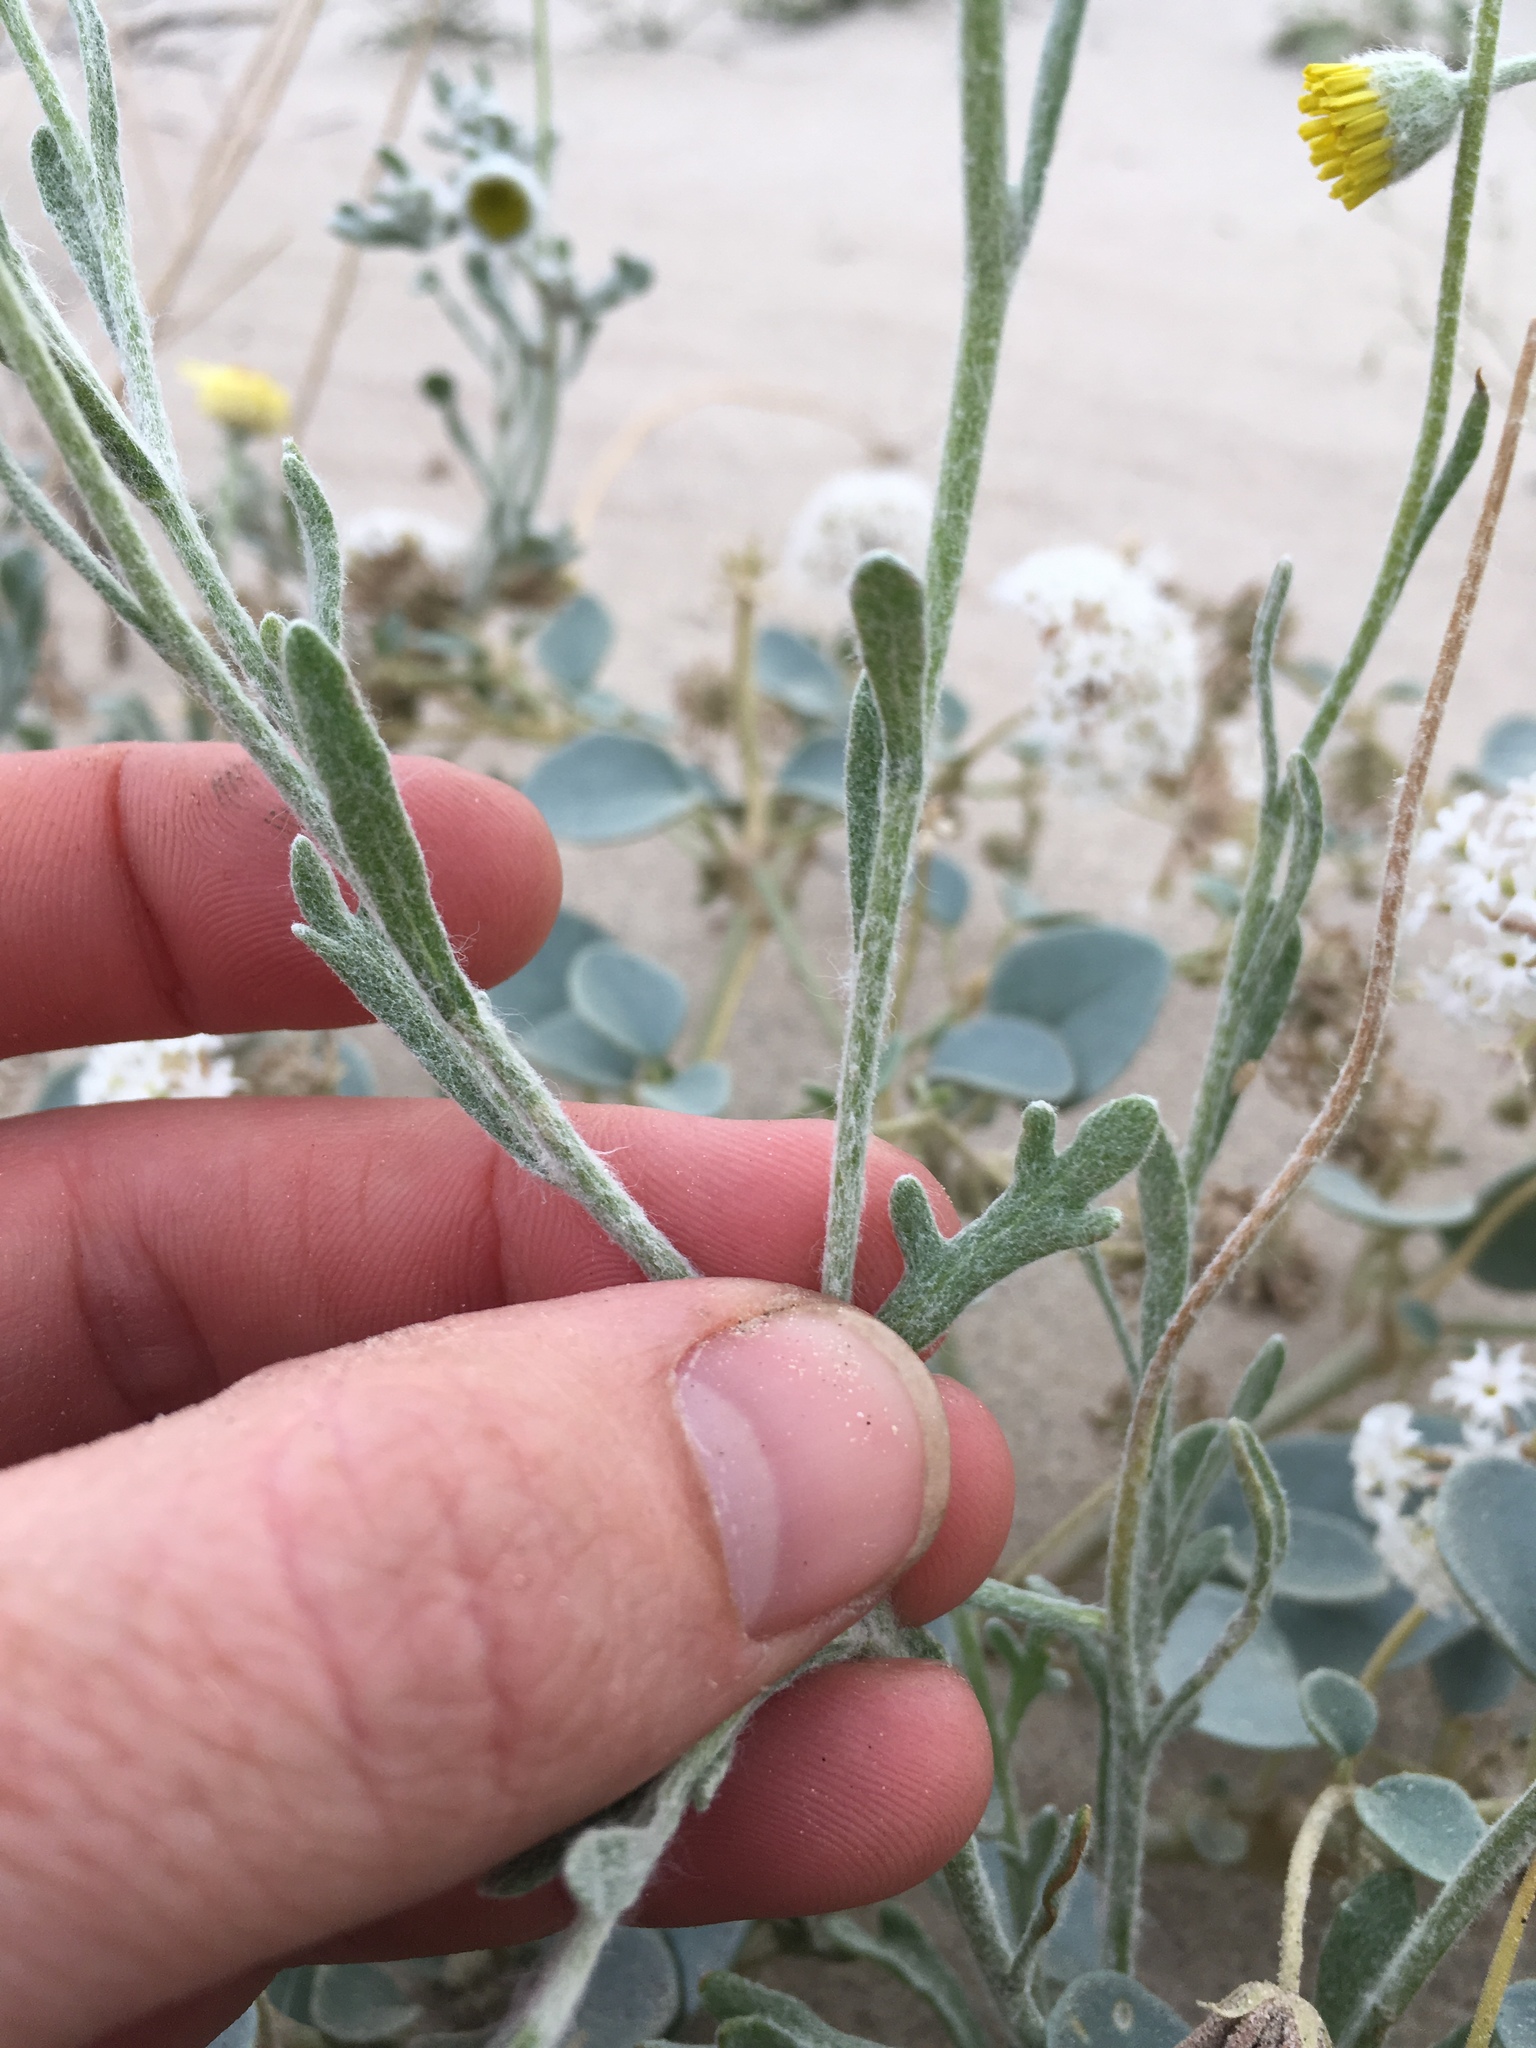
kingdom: Plantae
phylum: Tracheophyta
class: Magnoliopsida
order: Asterales
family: Asteraceae
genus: Baileya
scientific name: Baileya multiradiata
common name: Desert-marigold
